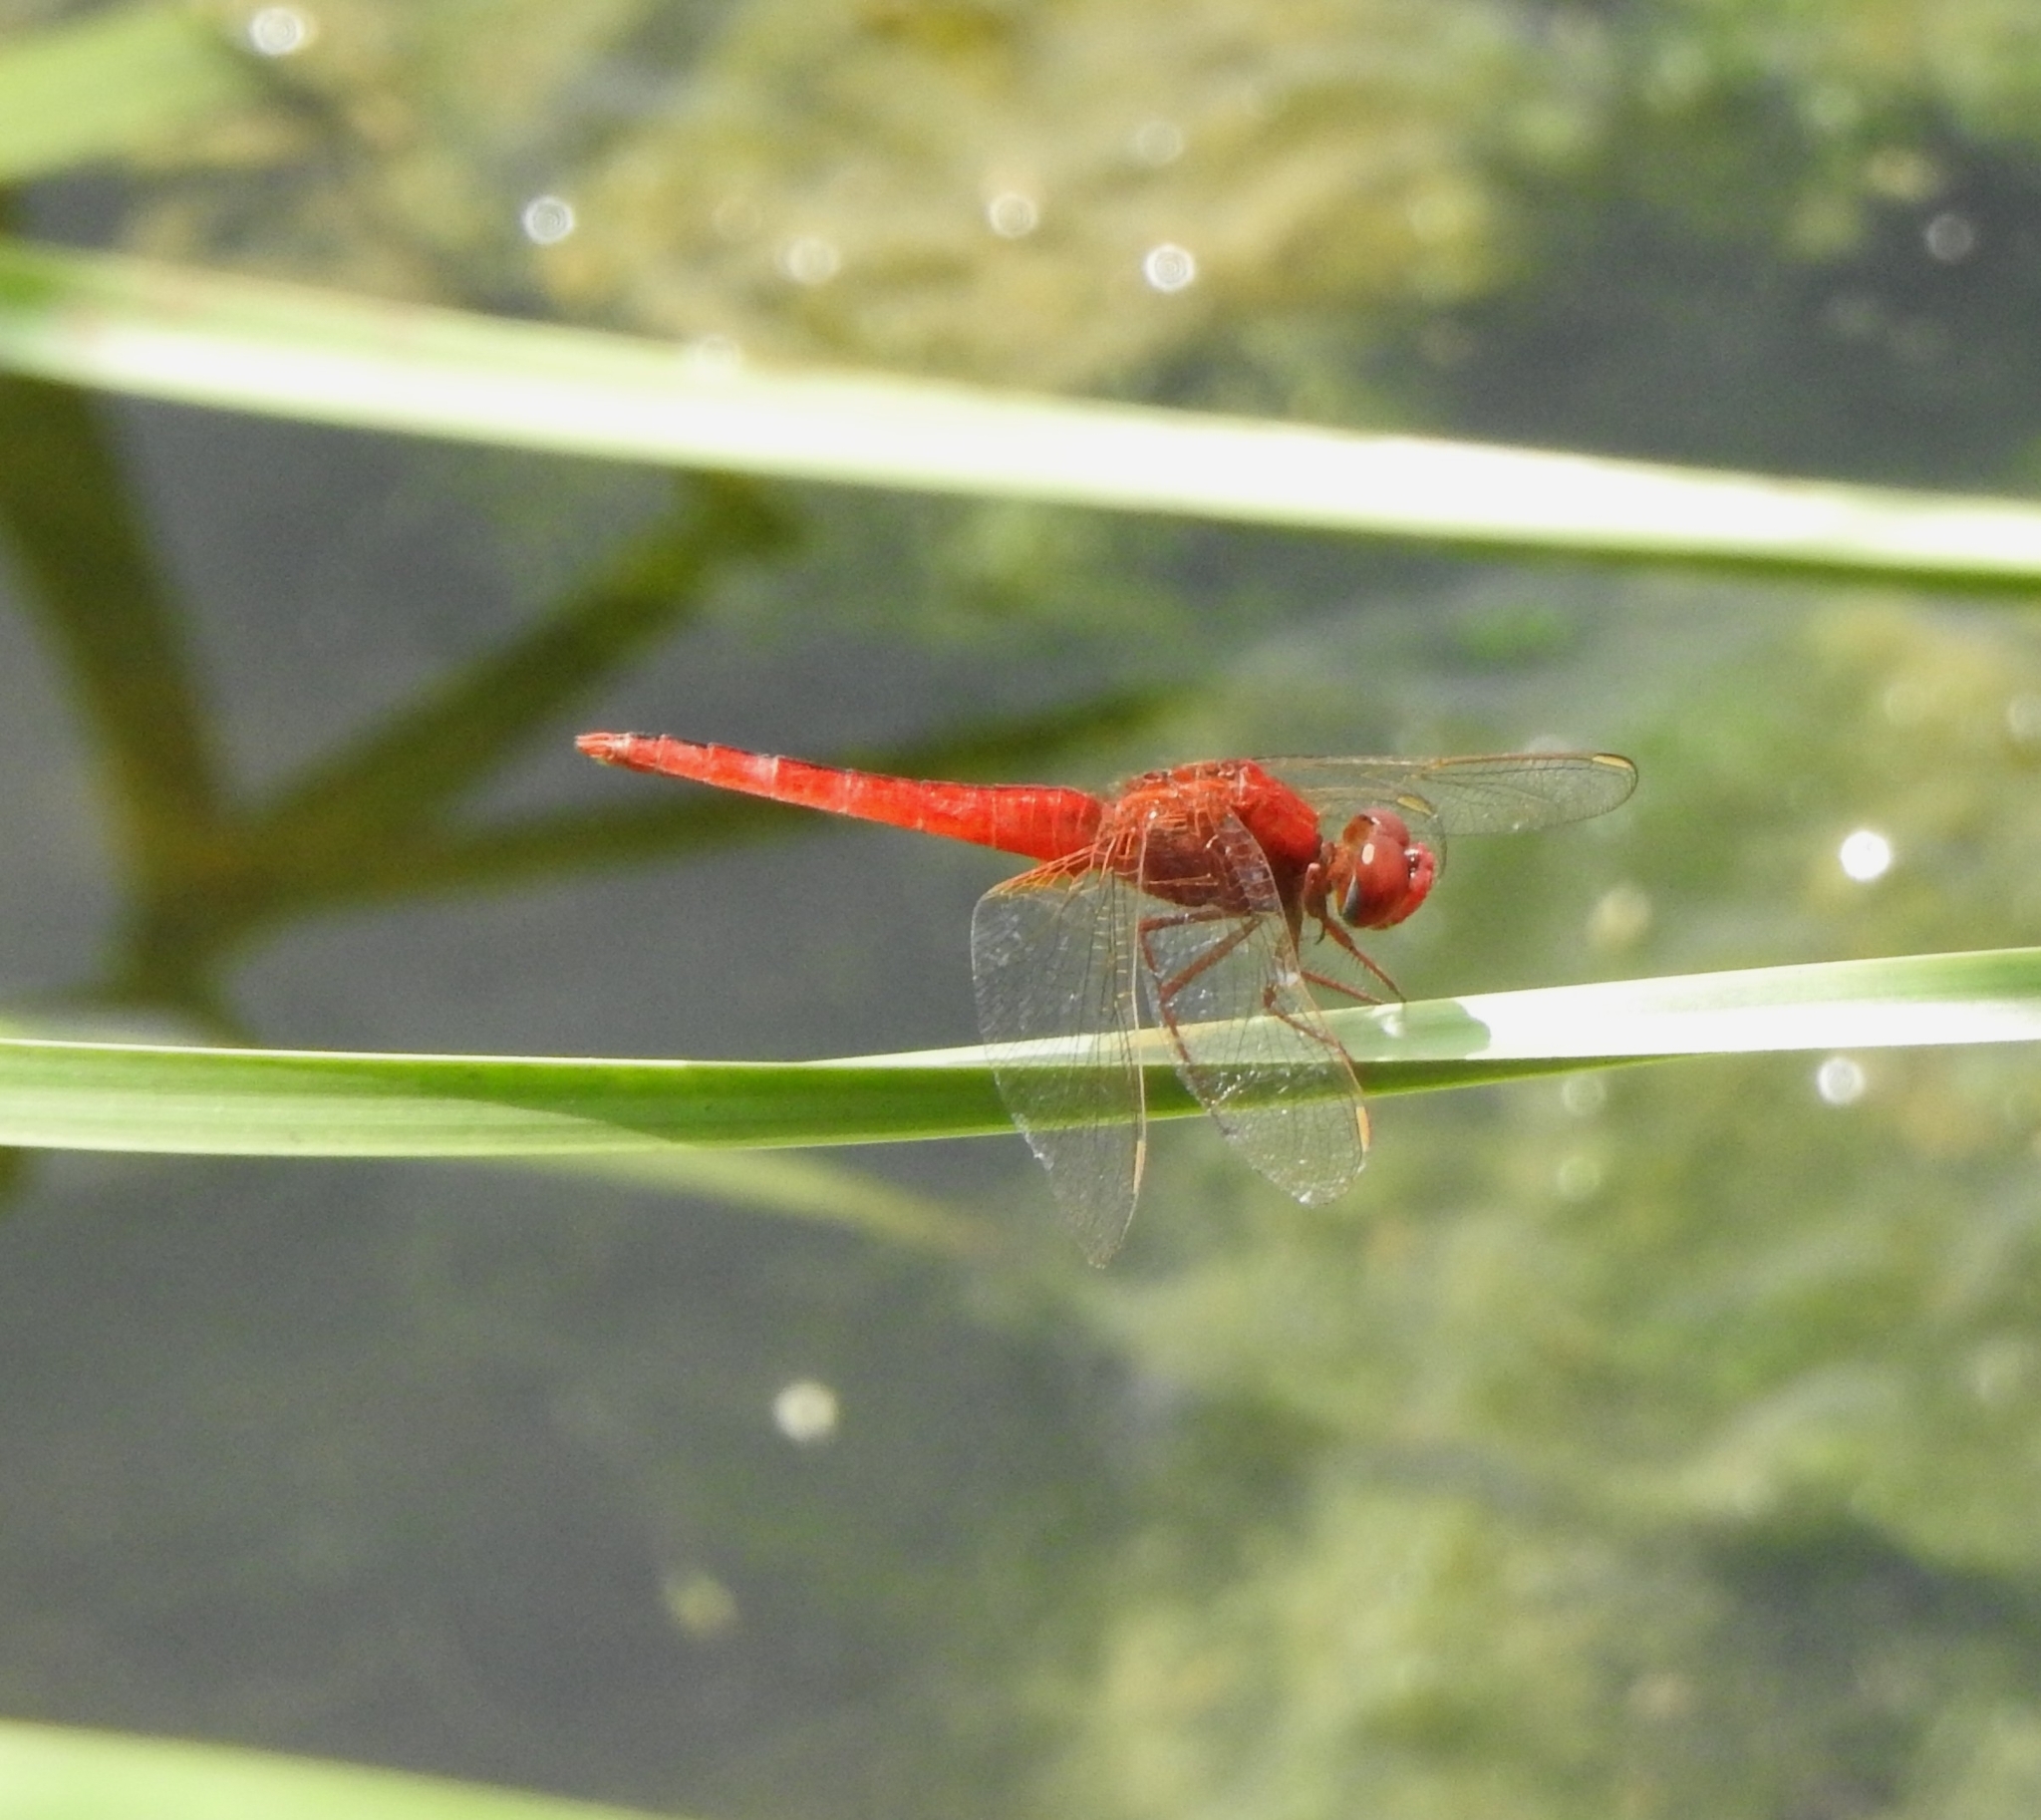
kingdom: Animalia
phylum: Arthropoda
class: Insecta
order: Odonata
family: Libellulidae
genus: Crocothemis
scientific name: Crocothemis servilia
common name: Scarlet skimmer
